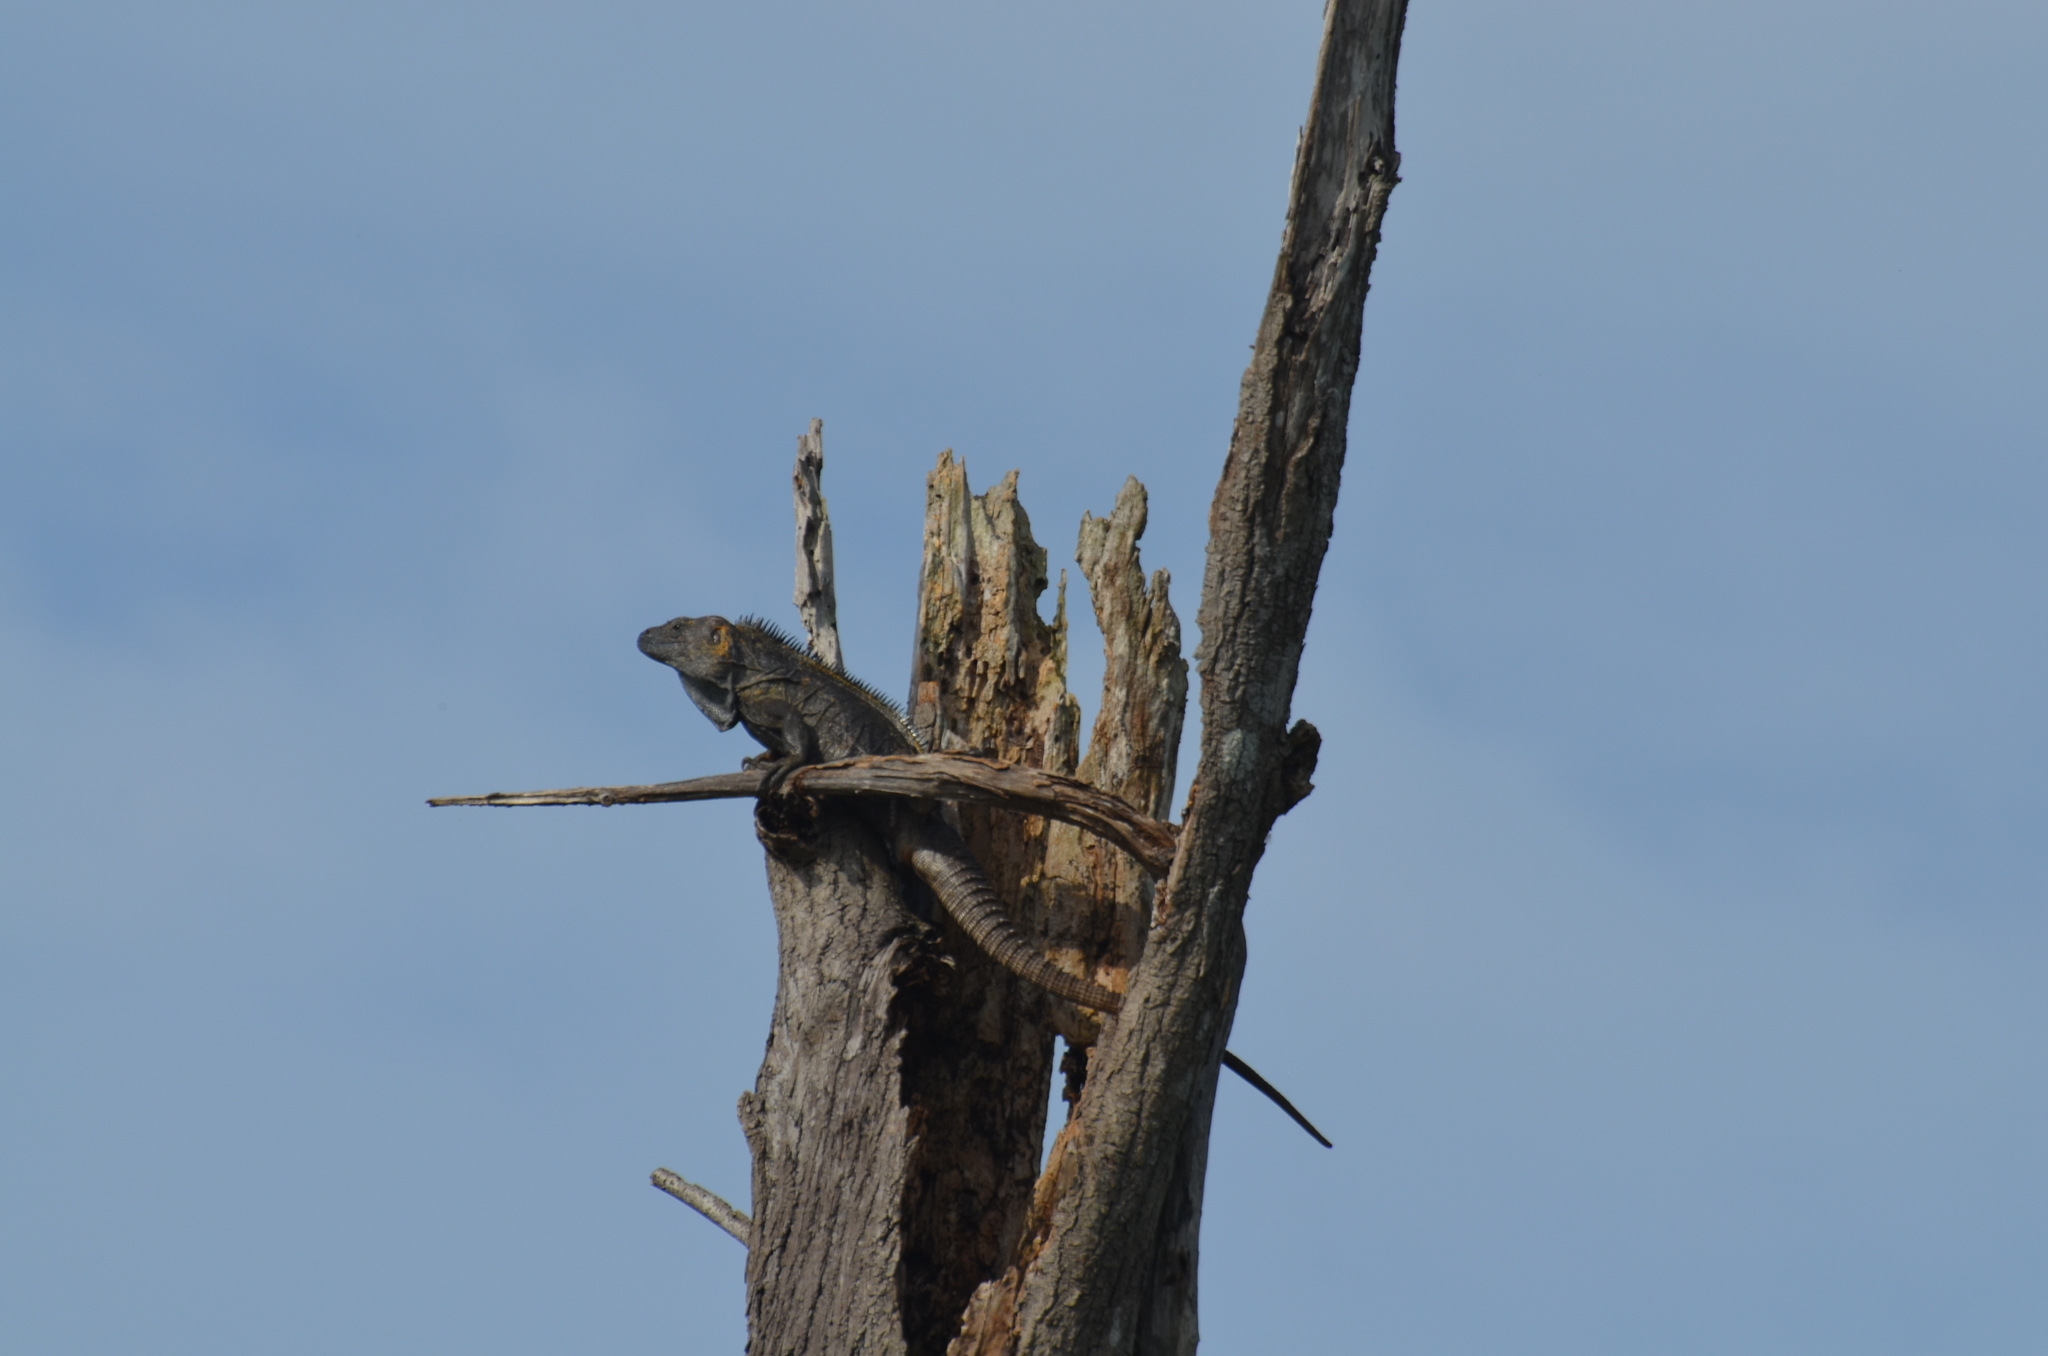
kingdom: Animalia
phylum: Chordata
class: Squamata
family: Iguanidae
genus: Ctenosaura
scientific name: Ctenosaura pectinata
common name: Guerreran spiny-tailed iguana
